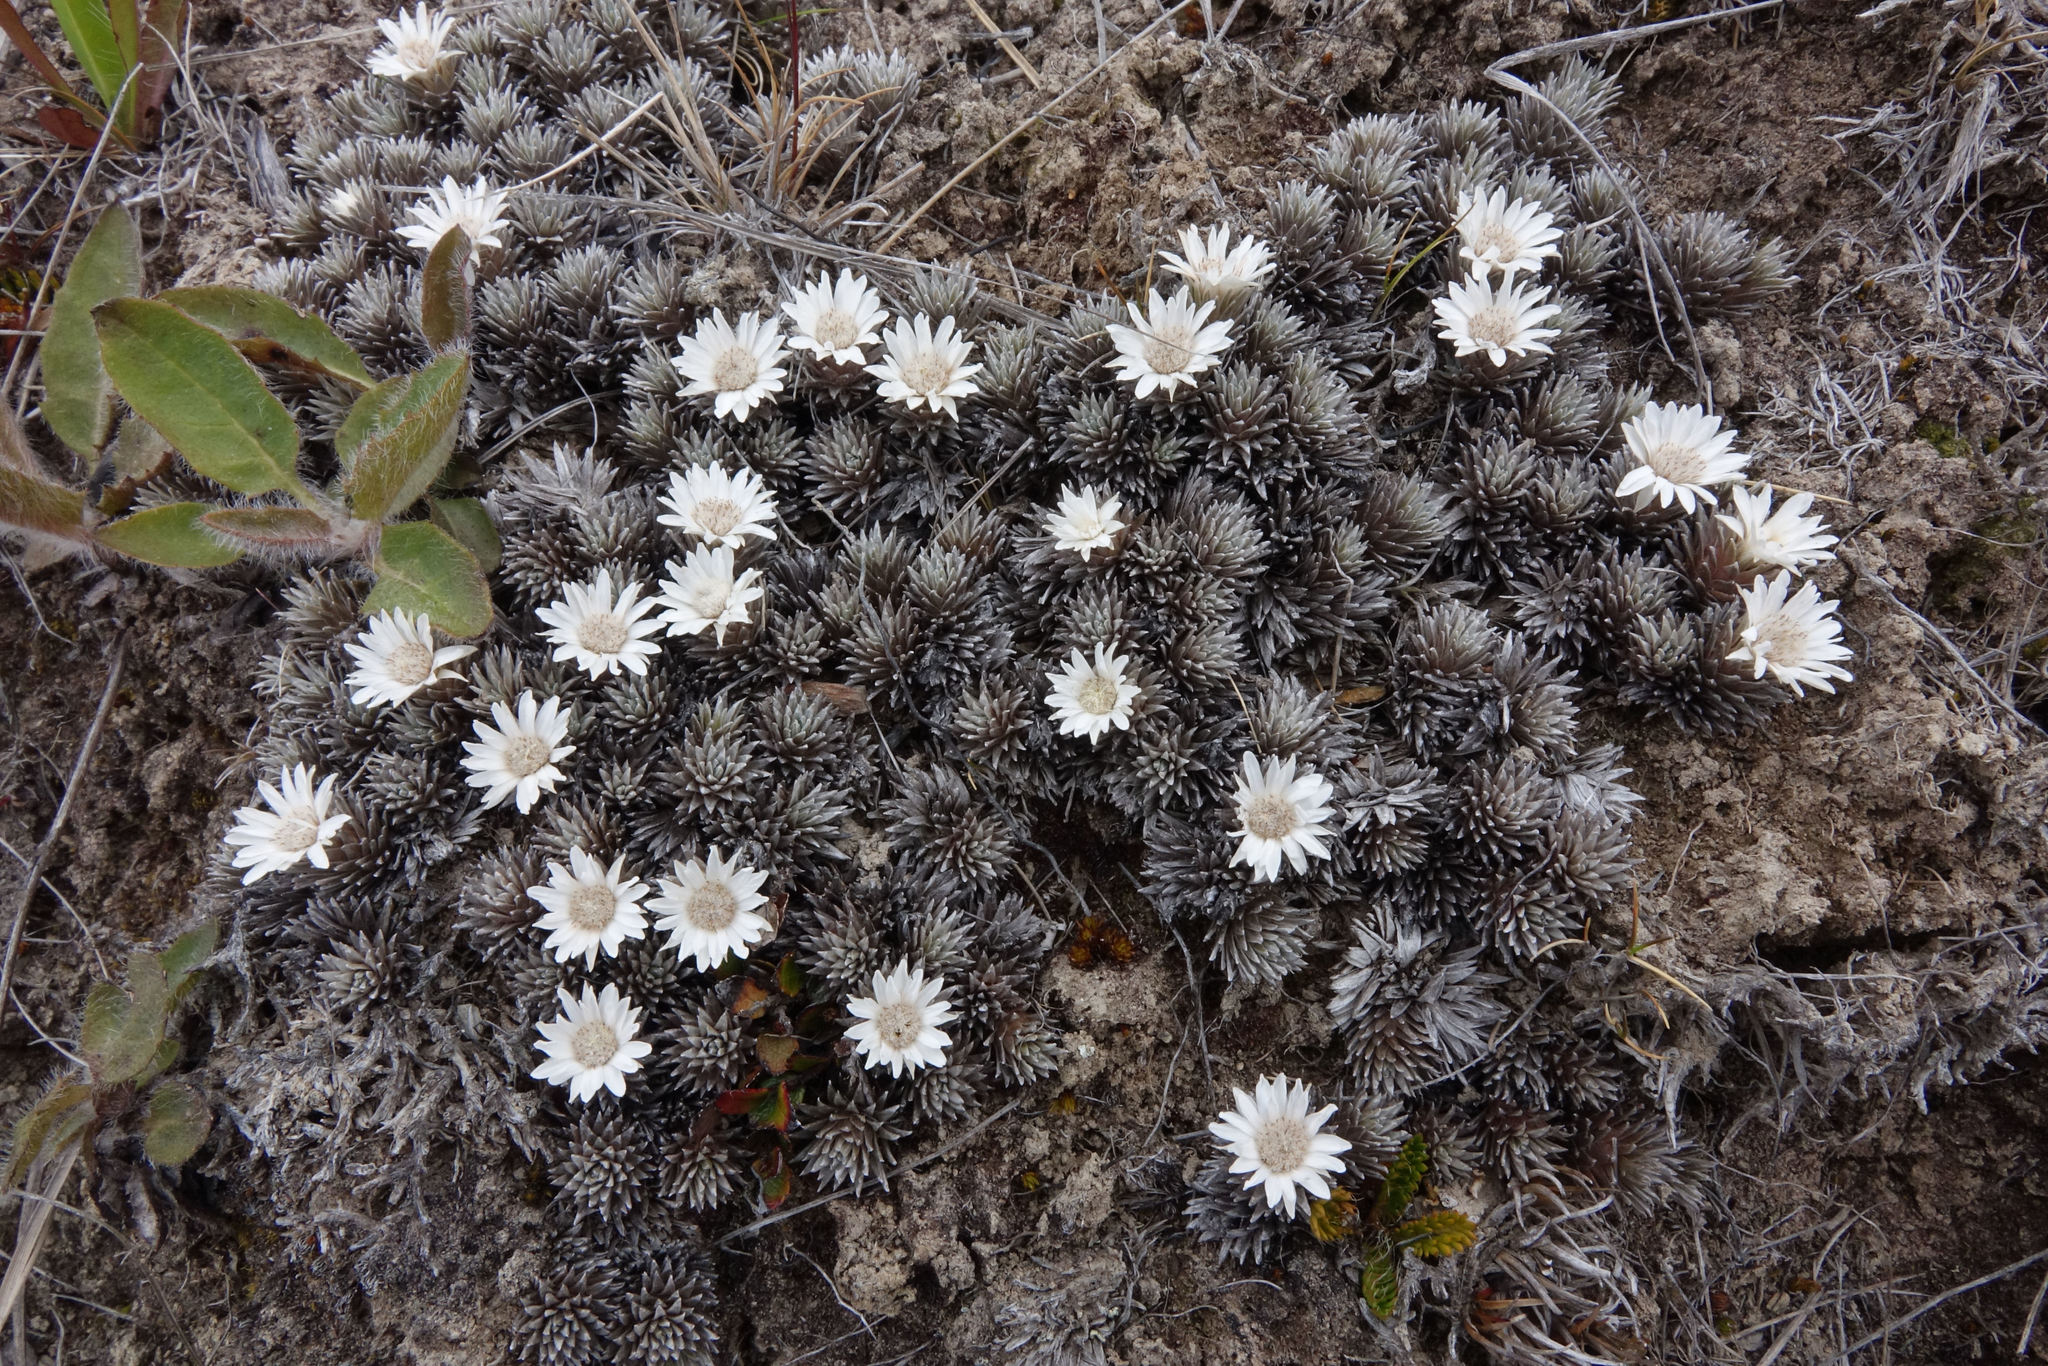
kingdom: Plantae
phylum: Tracheophyta
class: Magnoliopsida
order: Asterales
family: Asteraceae
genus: Raoulia
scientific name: Raoulia grandiflora
